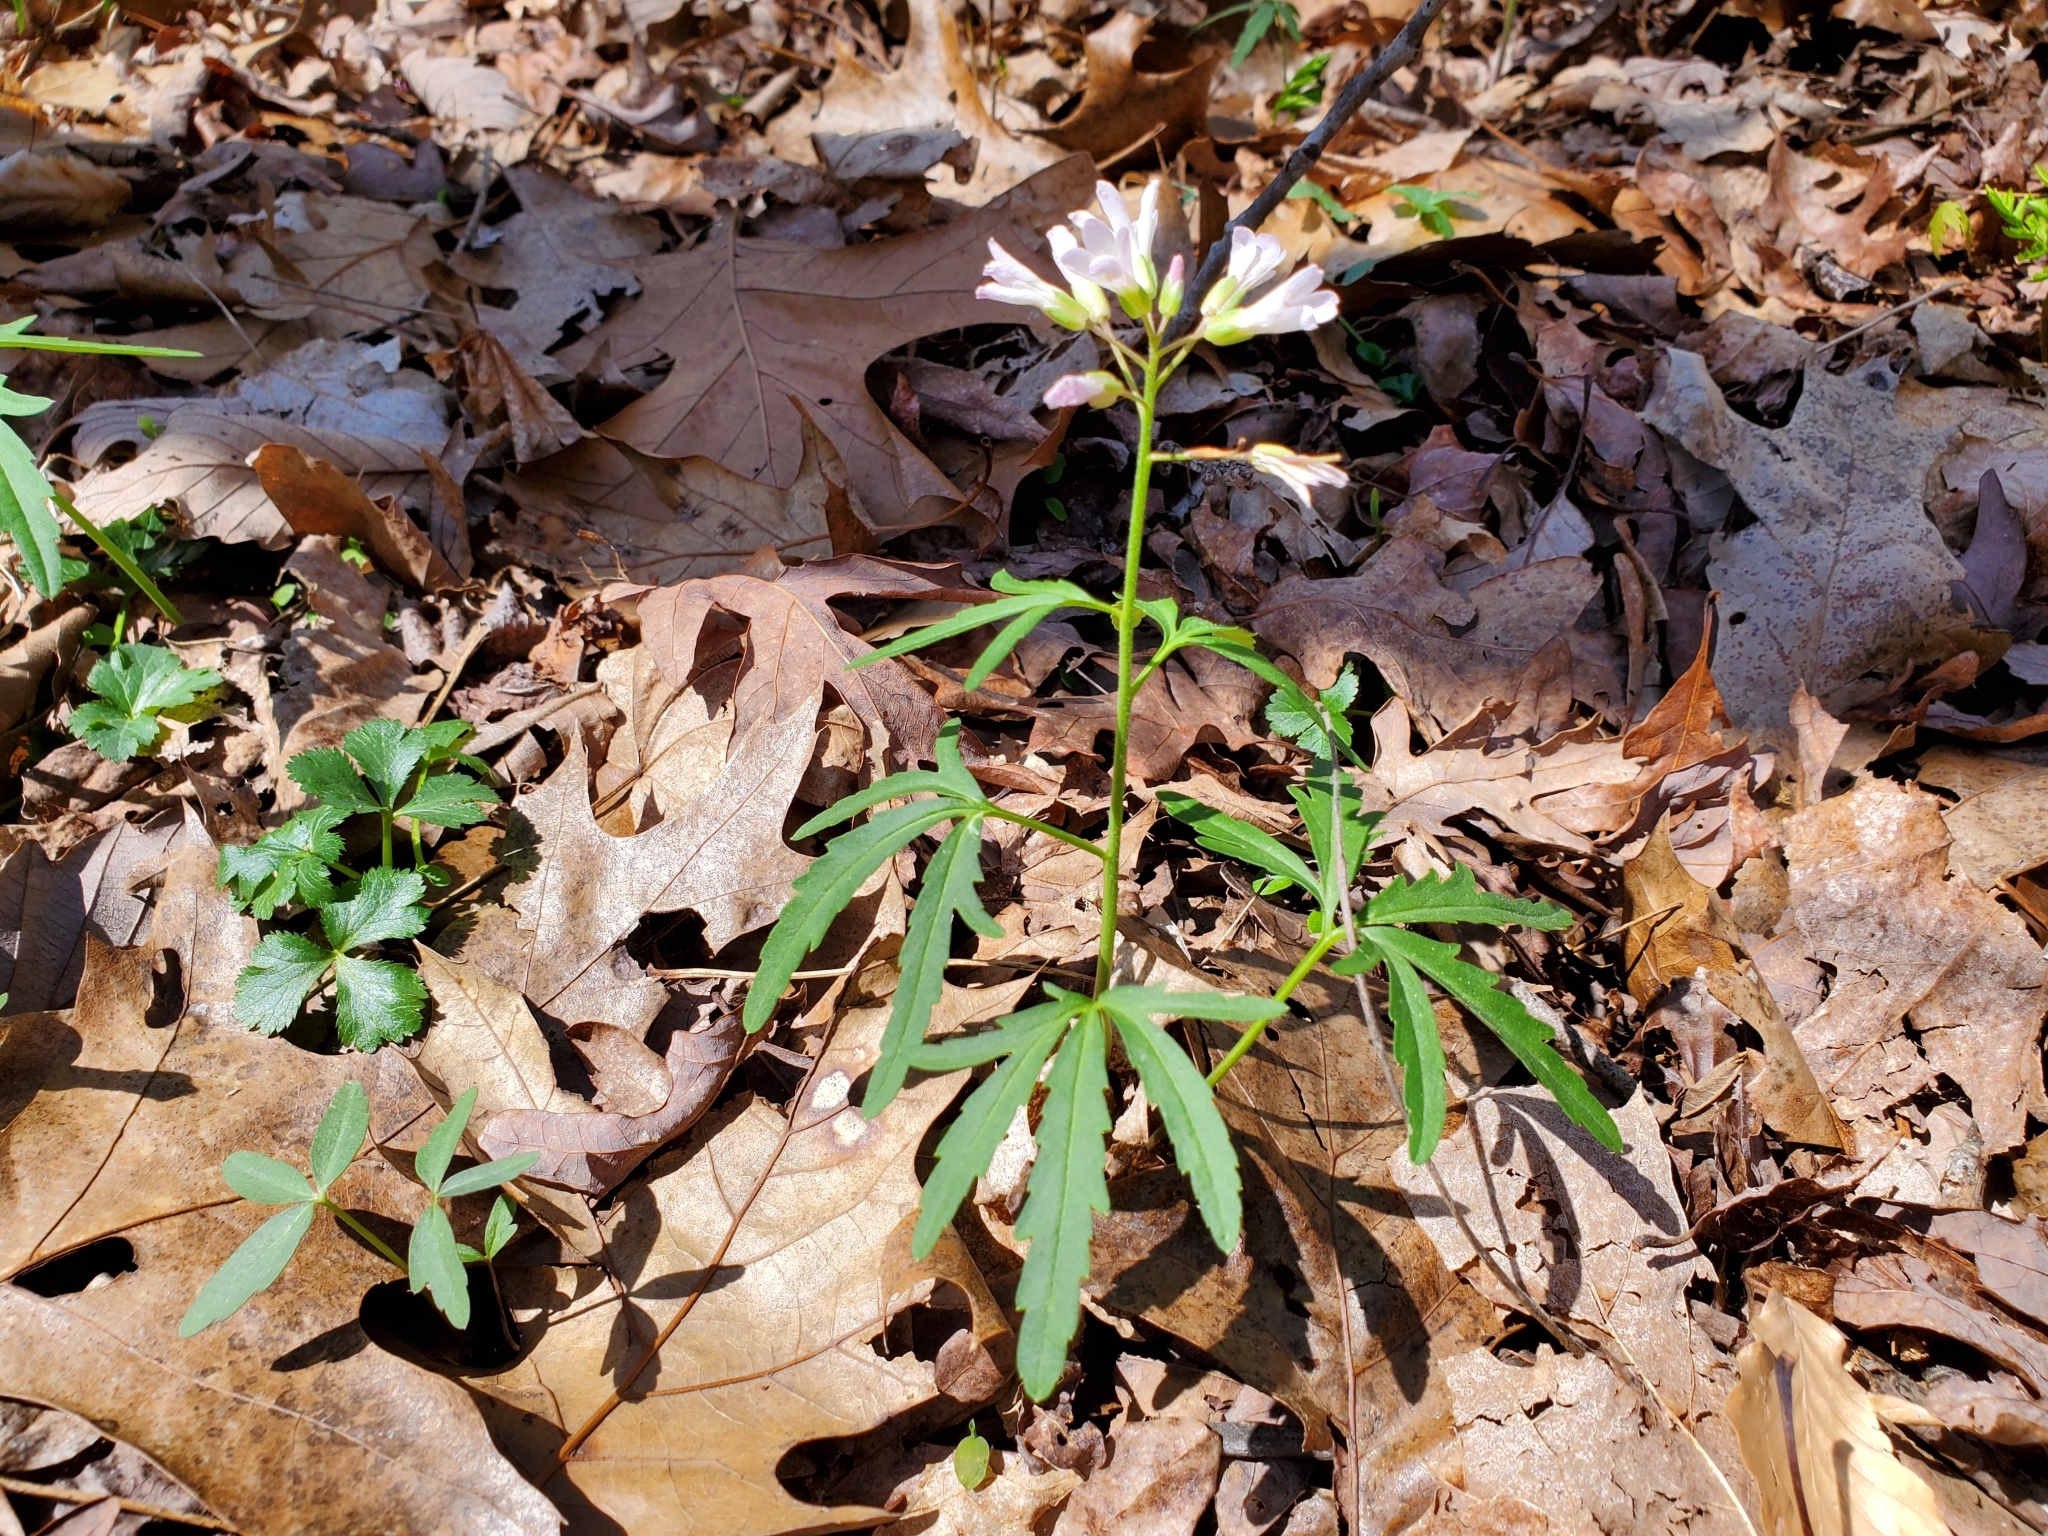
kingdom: Plantae
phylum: Tracheophyta
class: Magnoliopsida
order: Brassicales
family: Brassicaceae
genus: Cardamine
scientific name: Cardamine concatenata
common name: Cut-leaf toothcup
